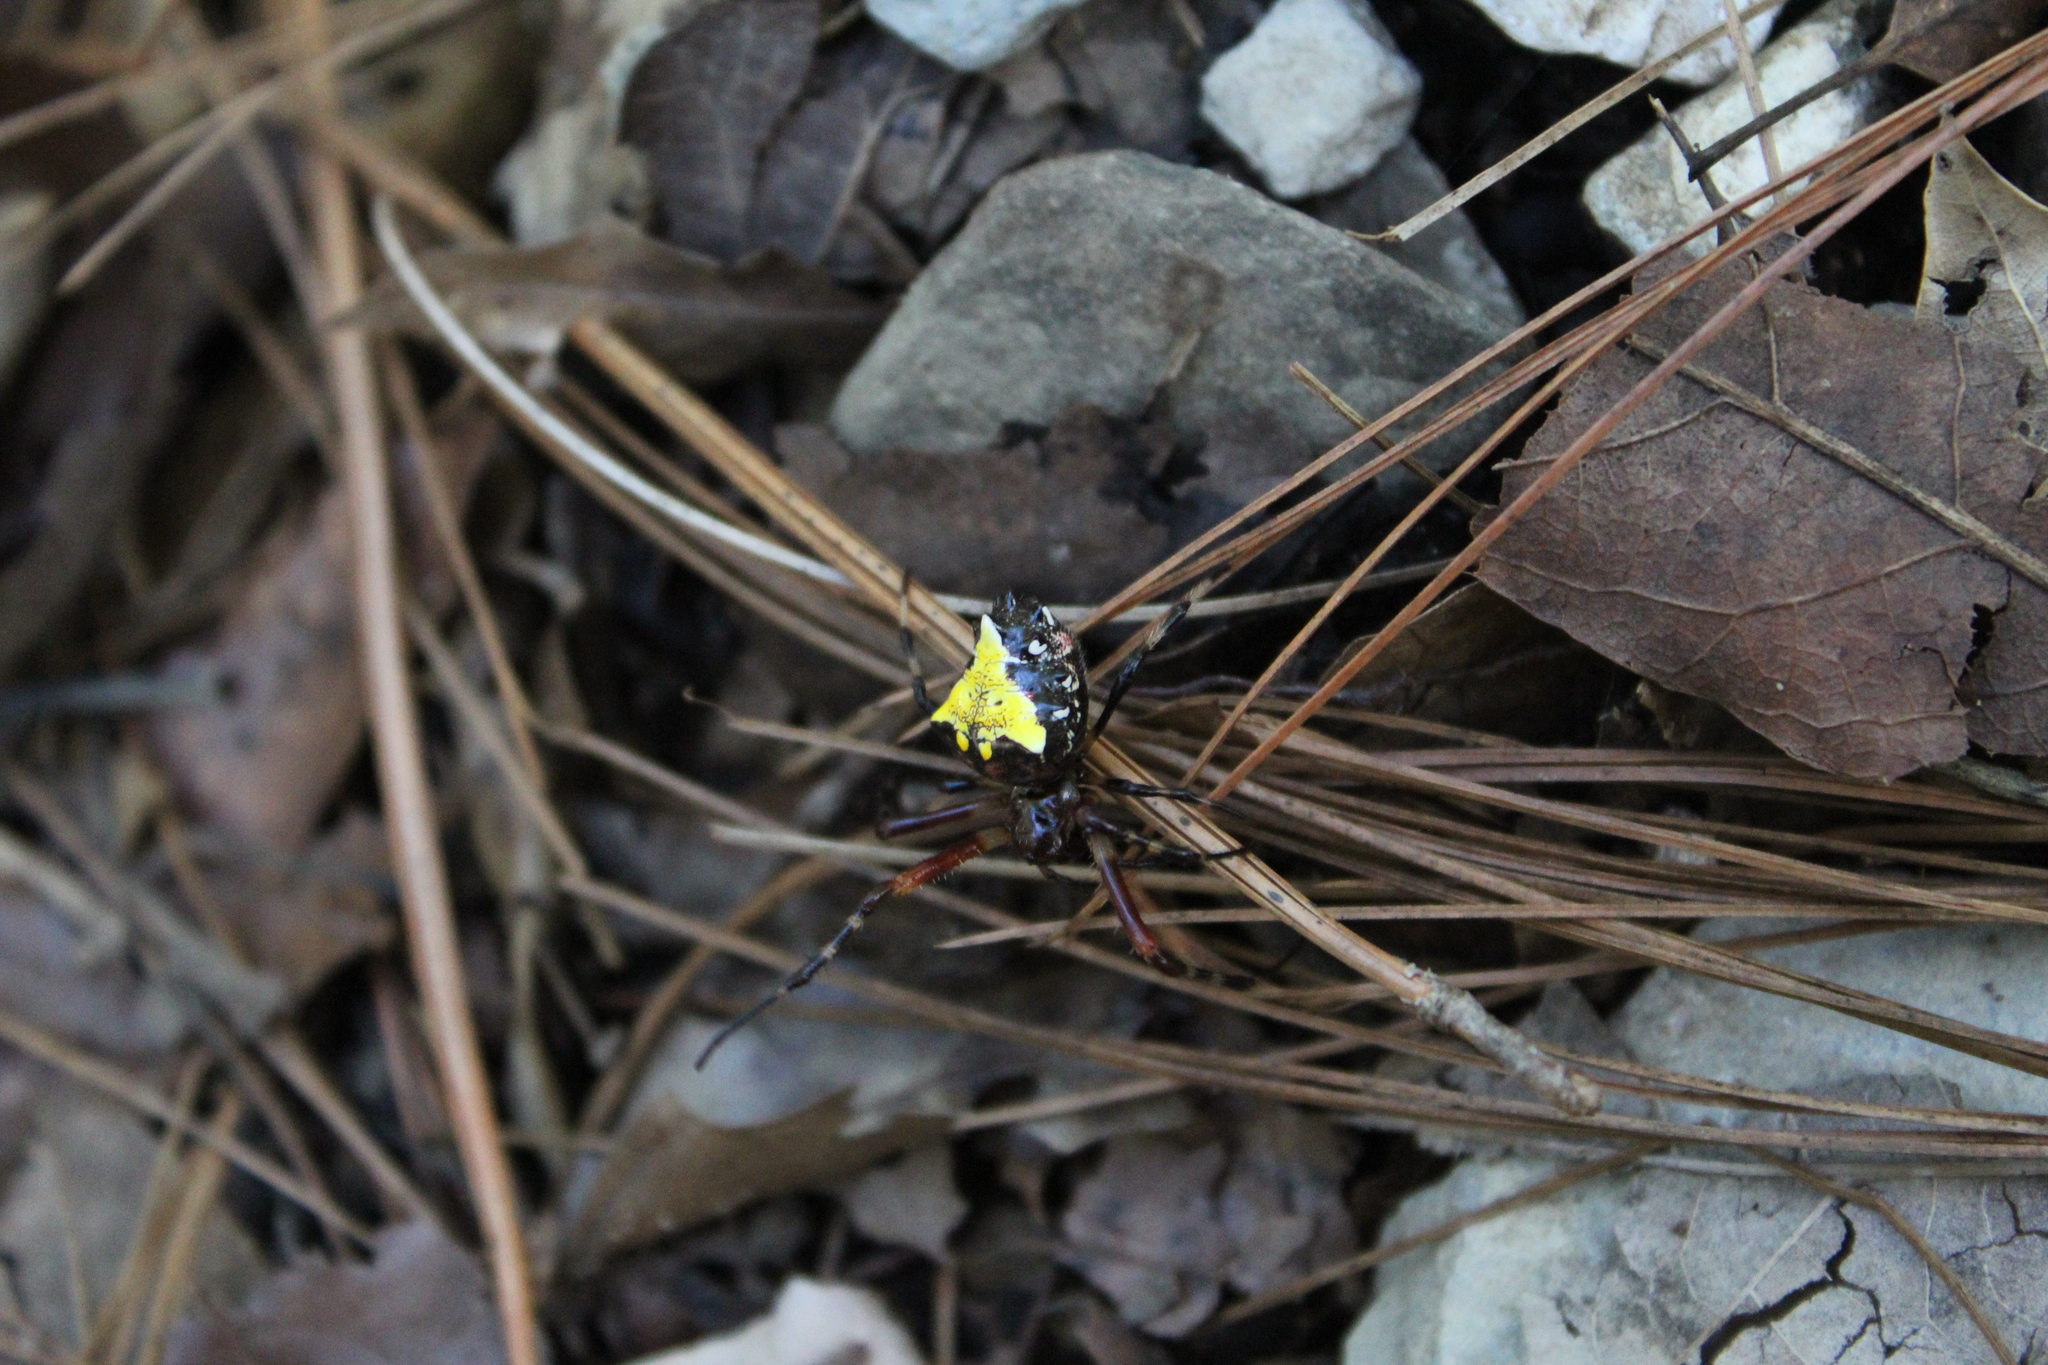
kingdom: Animalia
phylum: Arthropoda
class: Arachnida
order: Araneae
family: Araneidae
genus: Verrucosa
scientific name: Verrucosa arenata
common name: Orb weavers
